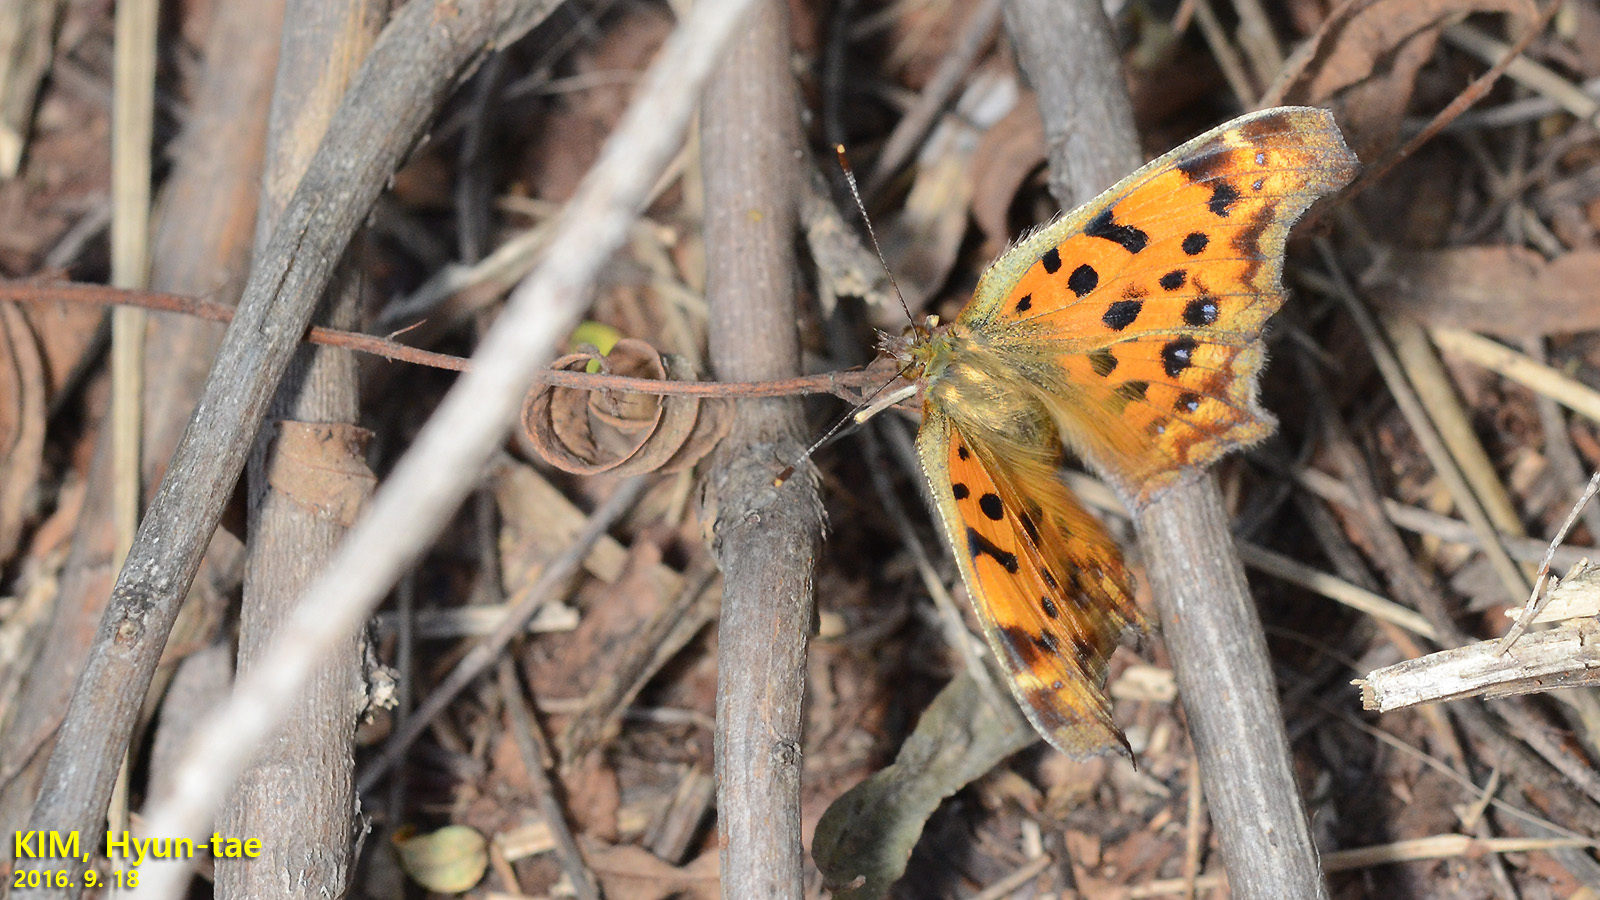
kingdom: Animalia
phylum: Arthropoda
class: Insecta
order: Lepidoptera
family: Nymphalidae
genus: Polygonia
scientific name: Polygonia c-aureum
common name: Asian comma
